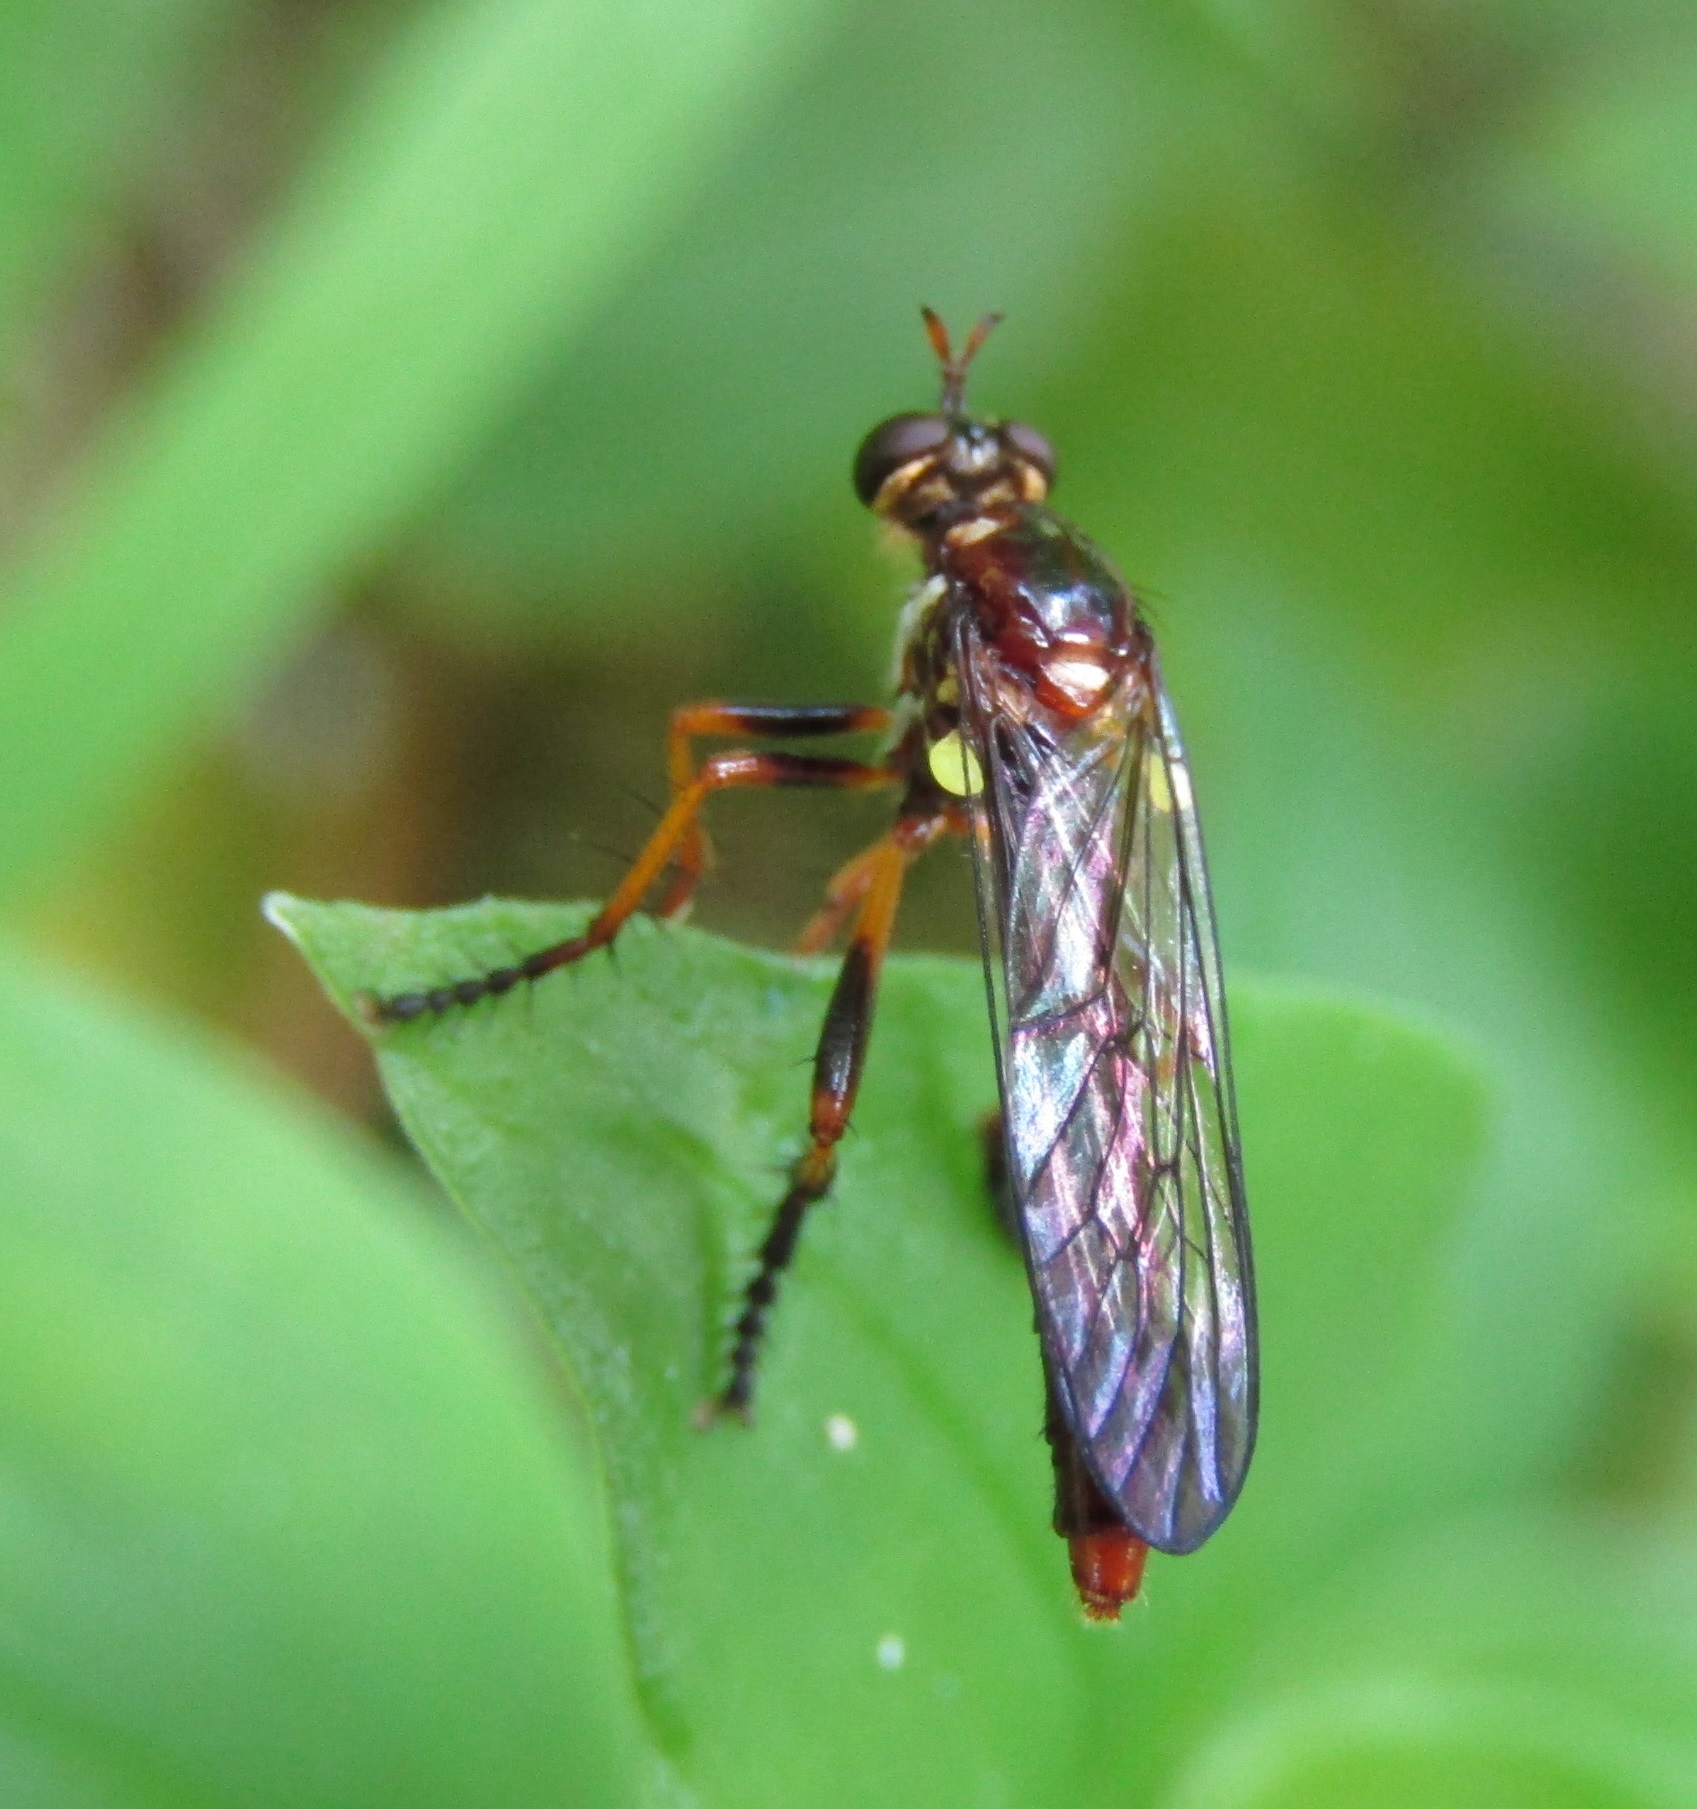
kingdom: Animalia
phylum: Arthropoda
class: Insecta
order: Diptera
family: Asilidae
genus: Saropogon
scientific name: Saropogon antipodus
